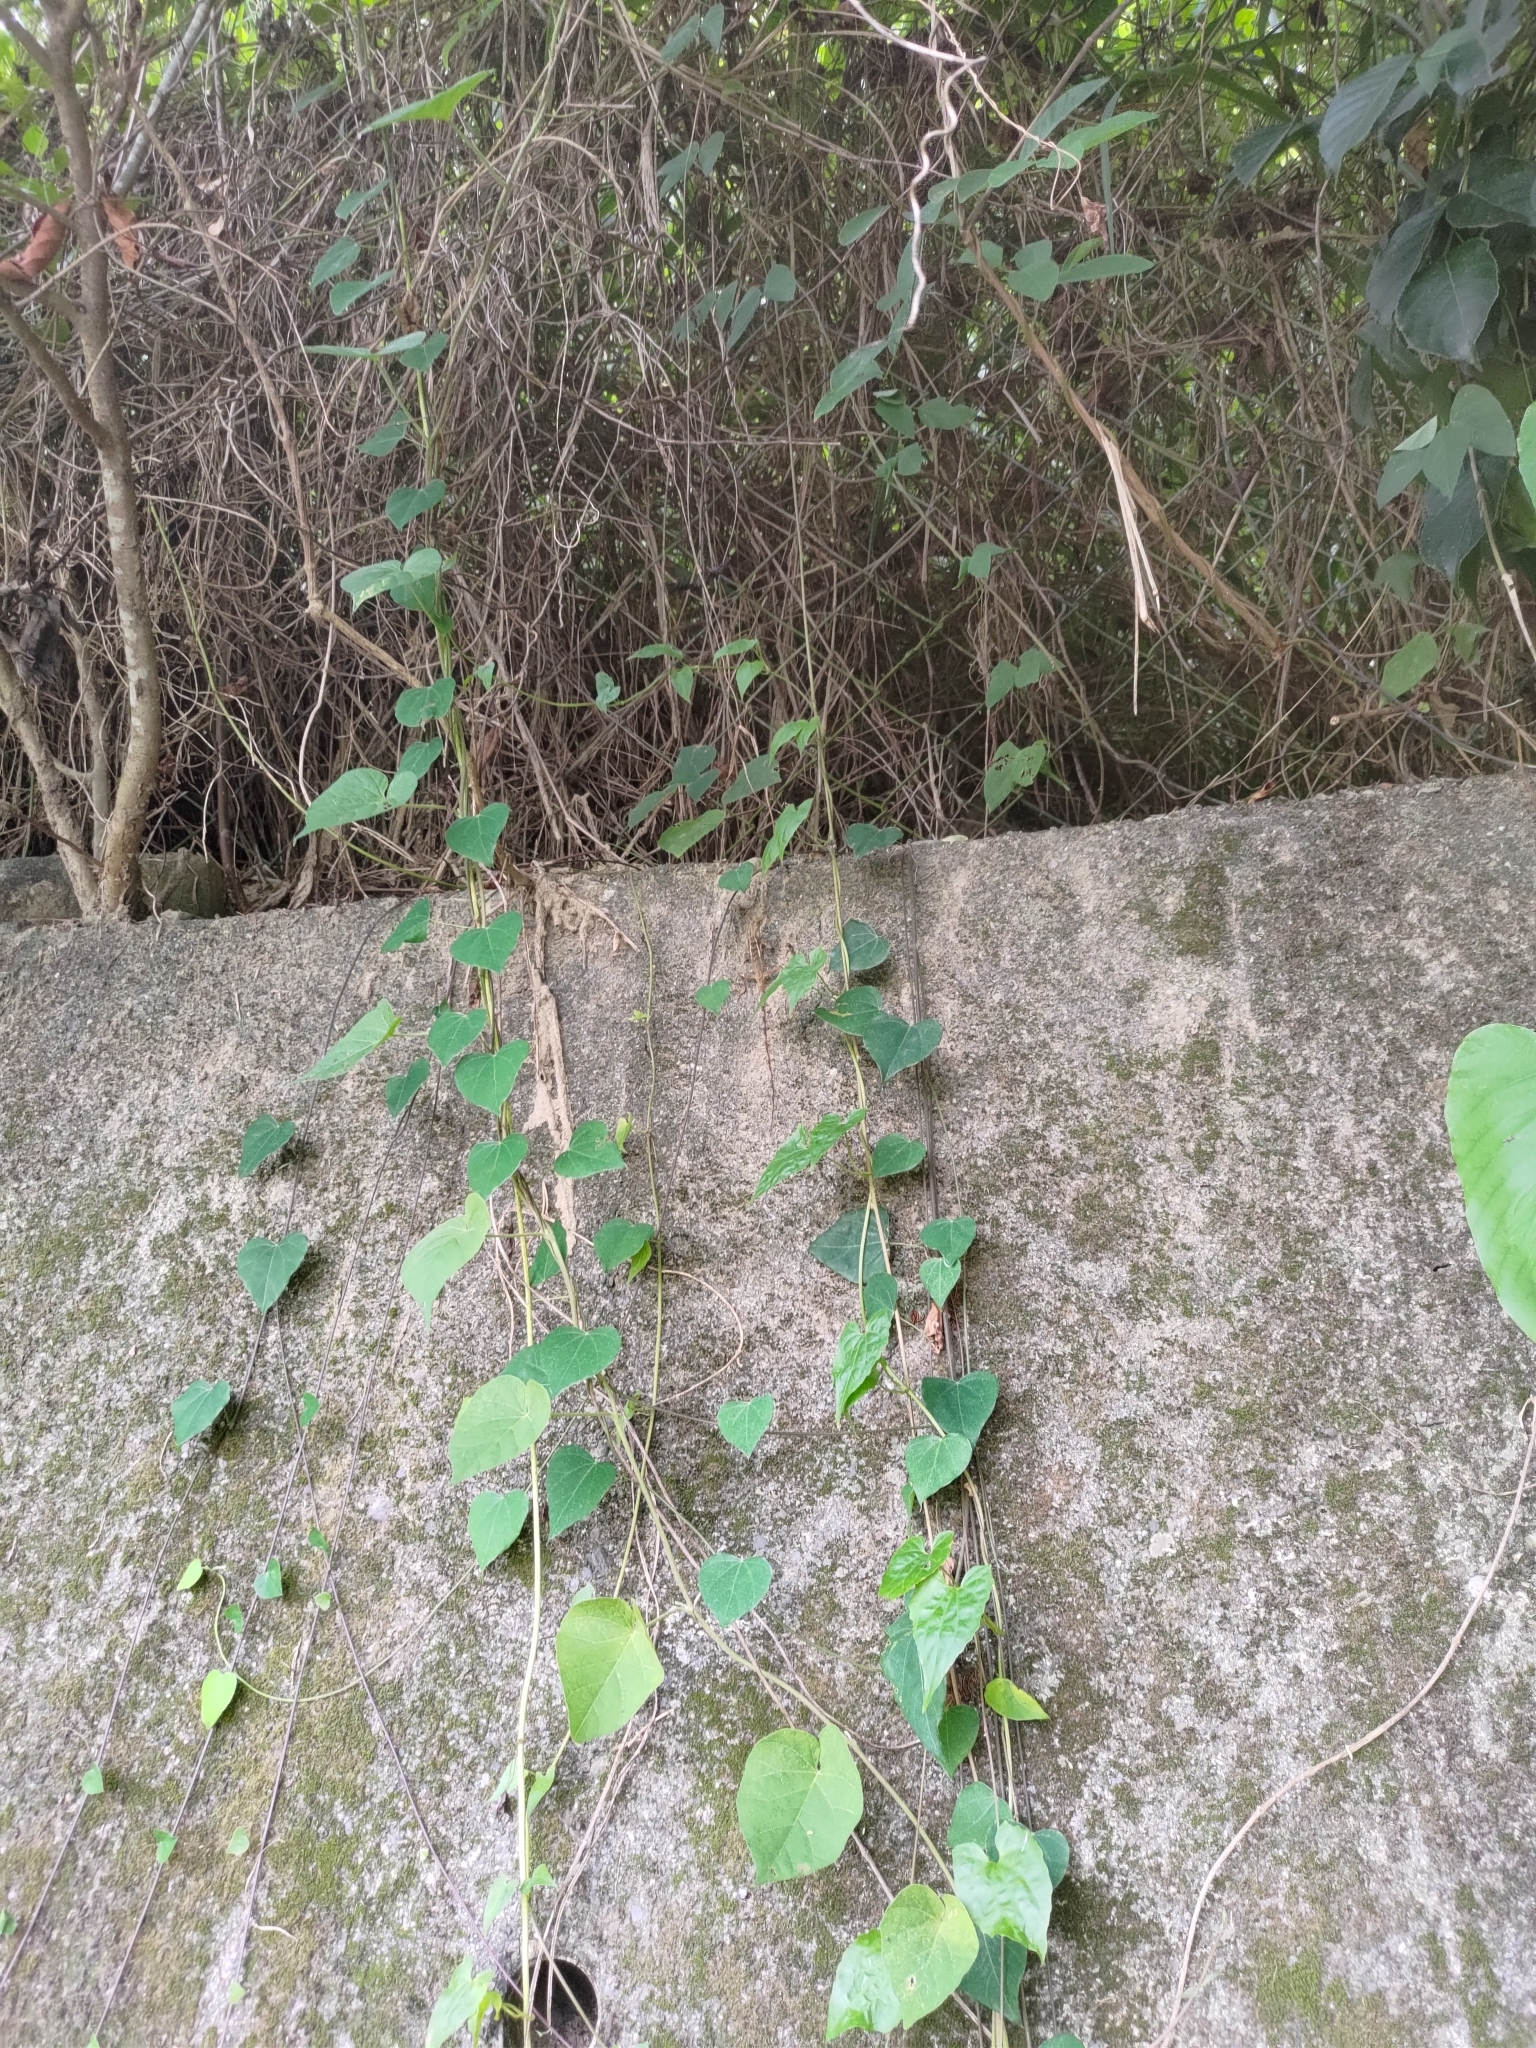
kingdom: Animalia
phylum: Chordata
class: Squamata
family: Agamidae
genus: Diploderma
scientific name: Diploderma swinhonis
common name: Taiwan japalure
